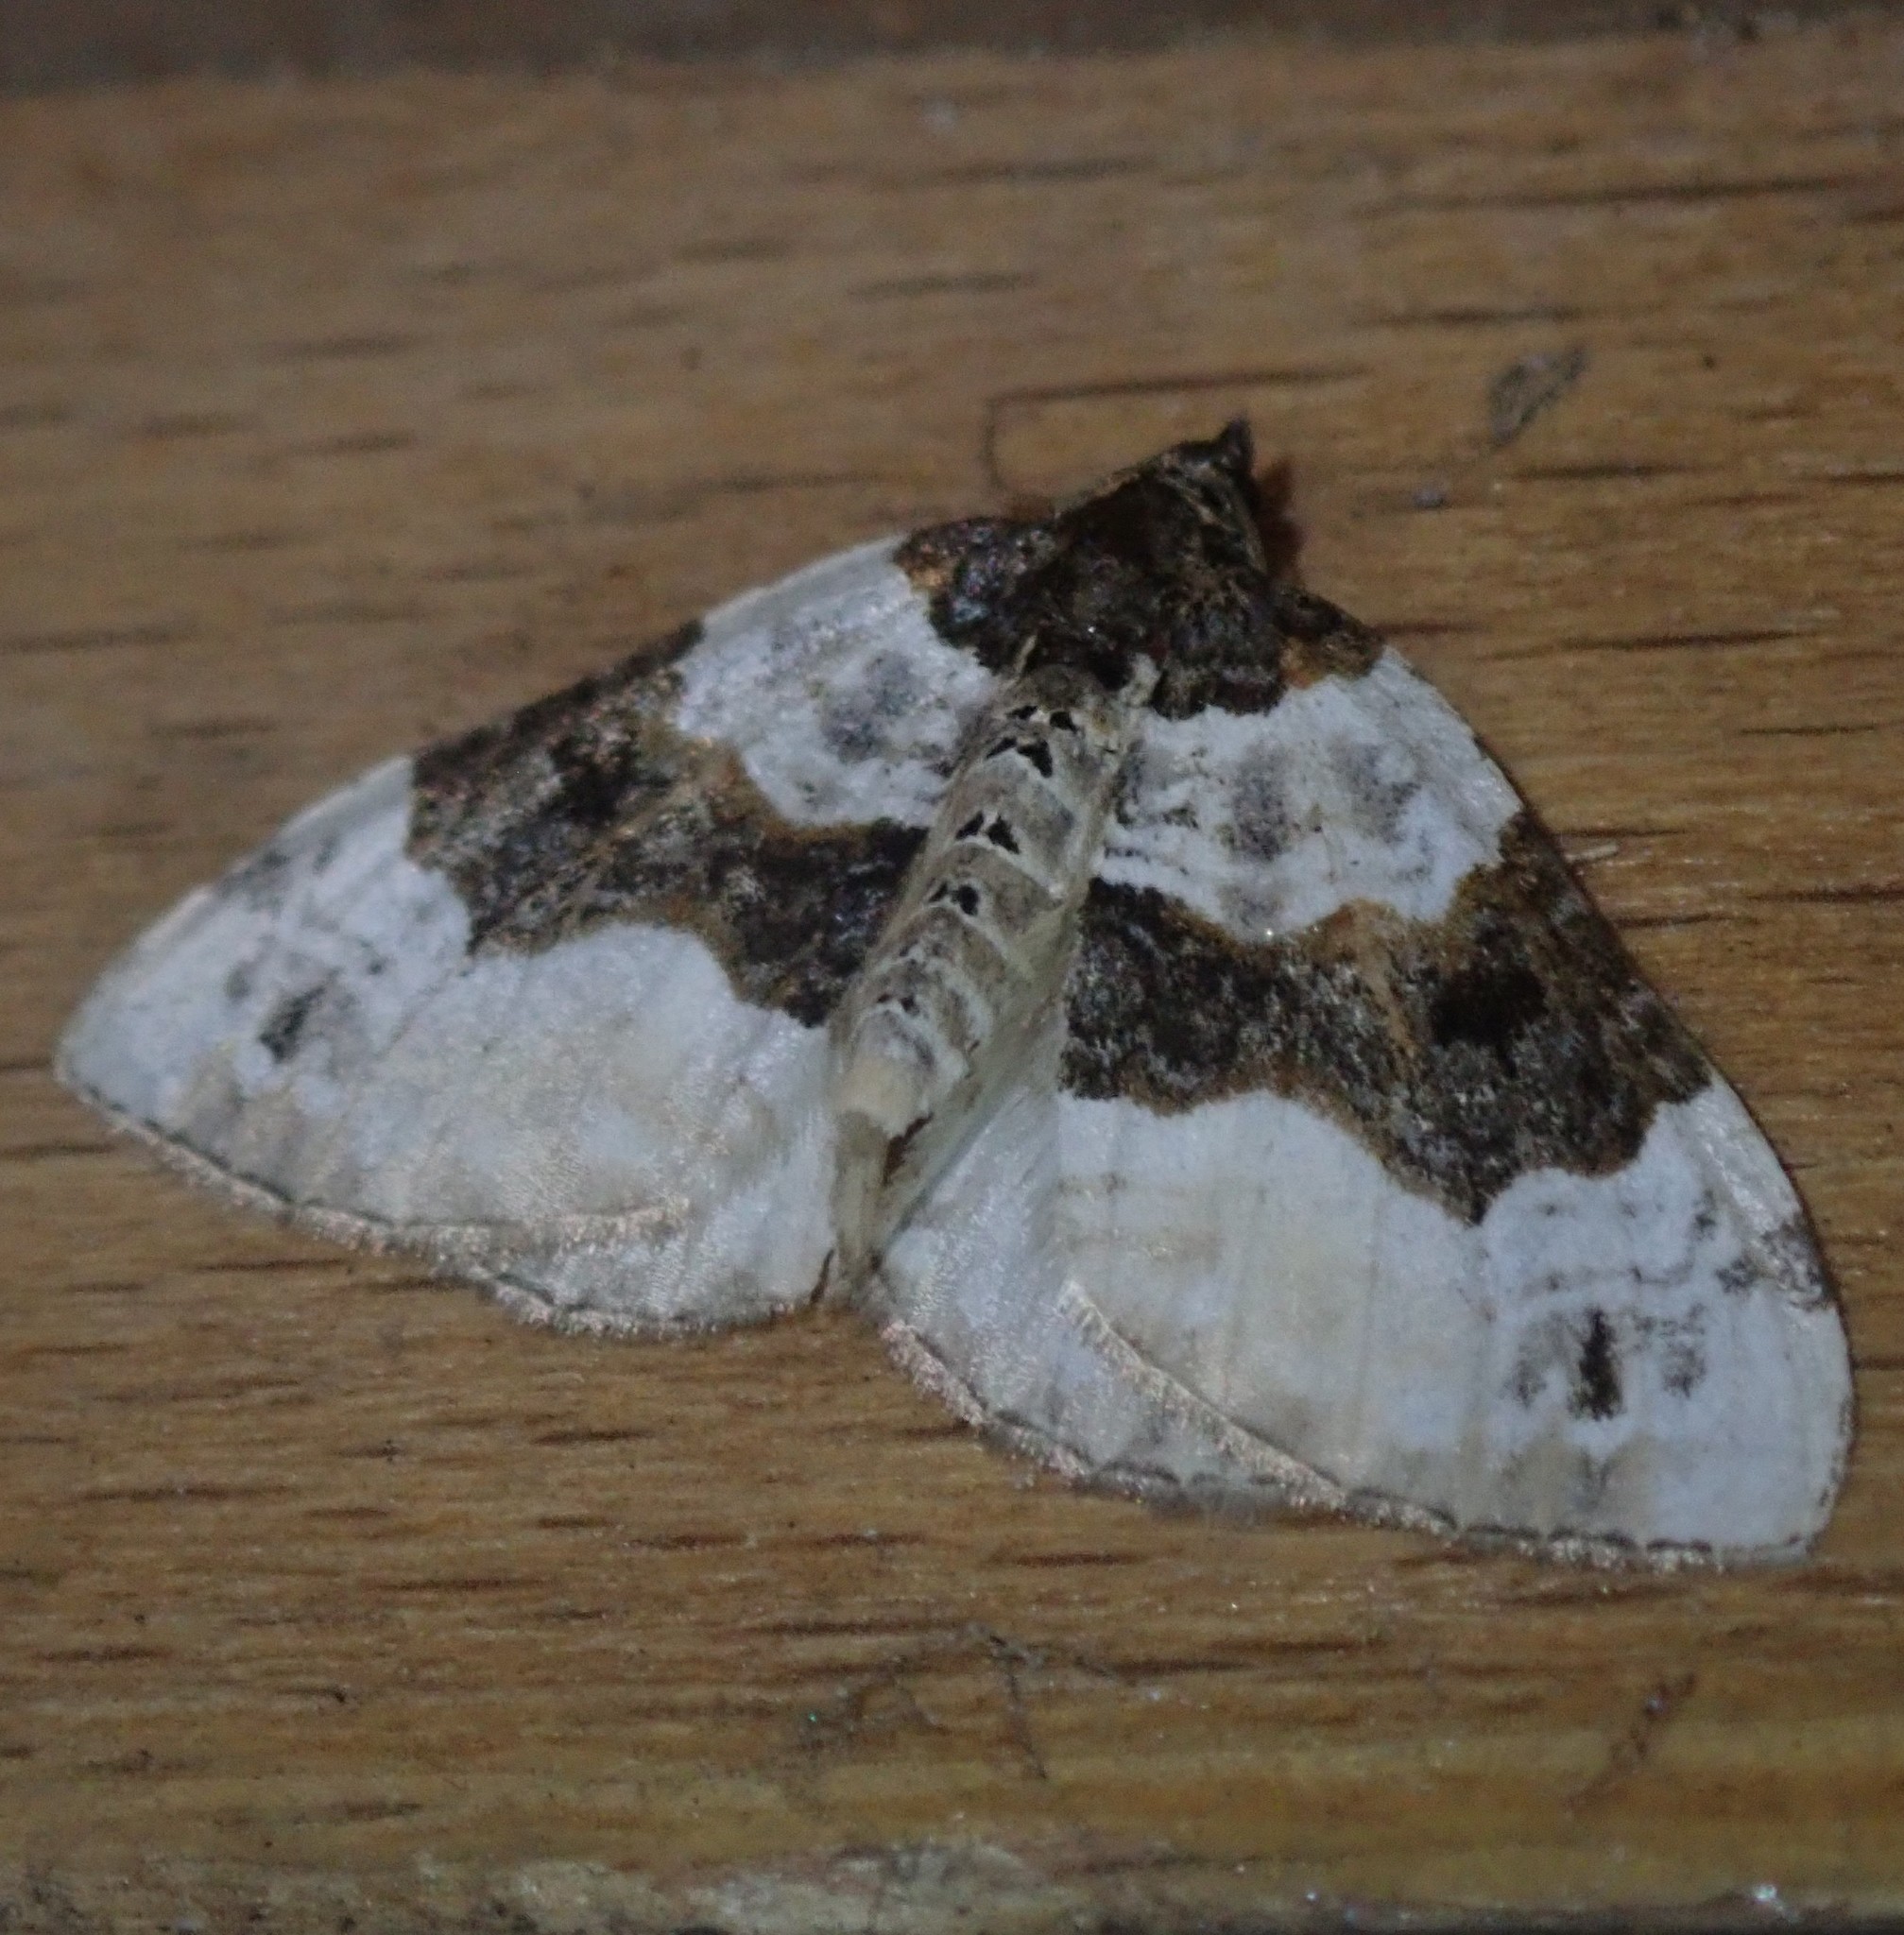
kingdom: Animalia
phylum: Arthropoda
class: Insecta
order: Lepidoptera
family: Geometridae
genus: Cosmorhoe
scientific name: Cosmorhoe ocellata
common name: Purple bar
